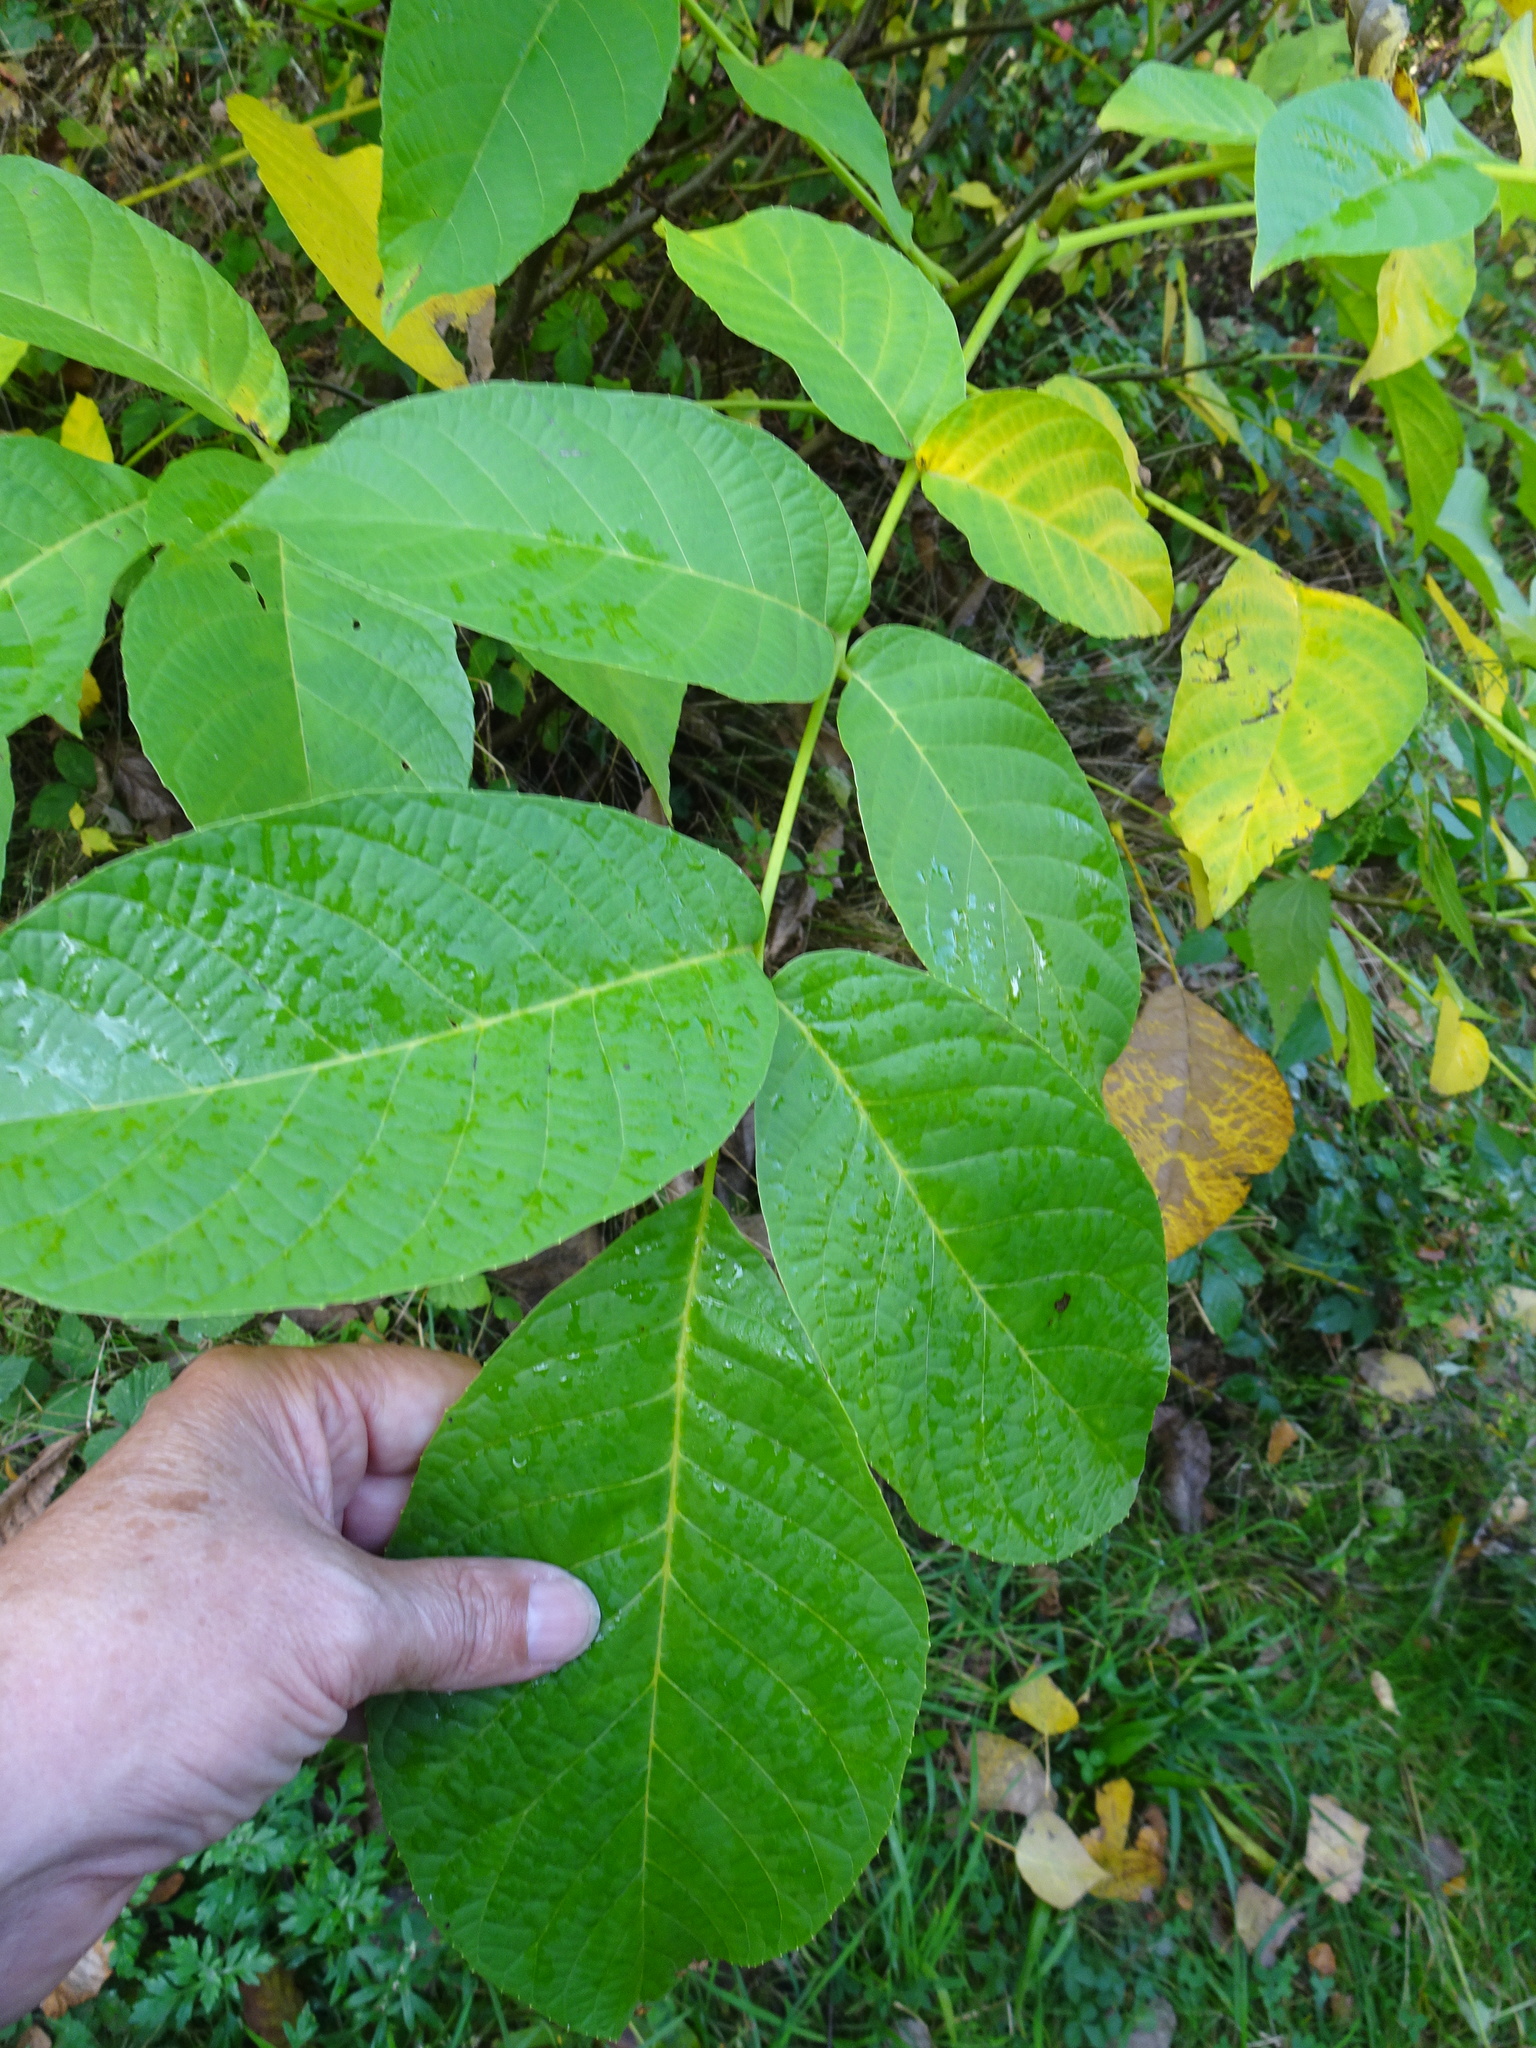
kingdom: Plantae
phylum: Tracheophyta
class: Magnoliopsida
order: Fagales
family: Juglandaceae
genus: Juglans
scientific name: Juglans regia
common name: Walnut
